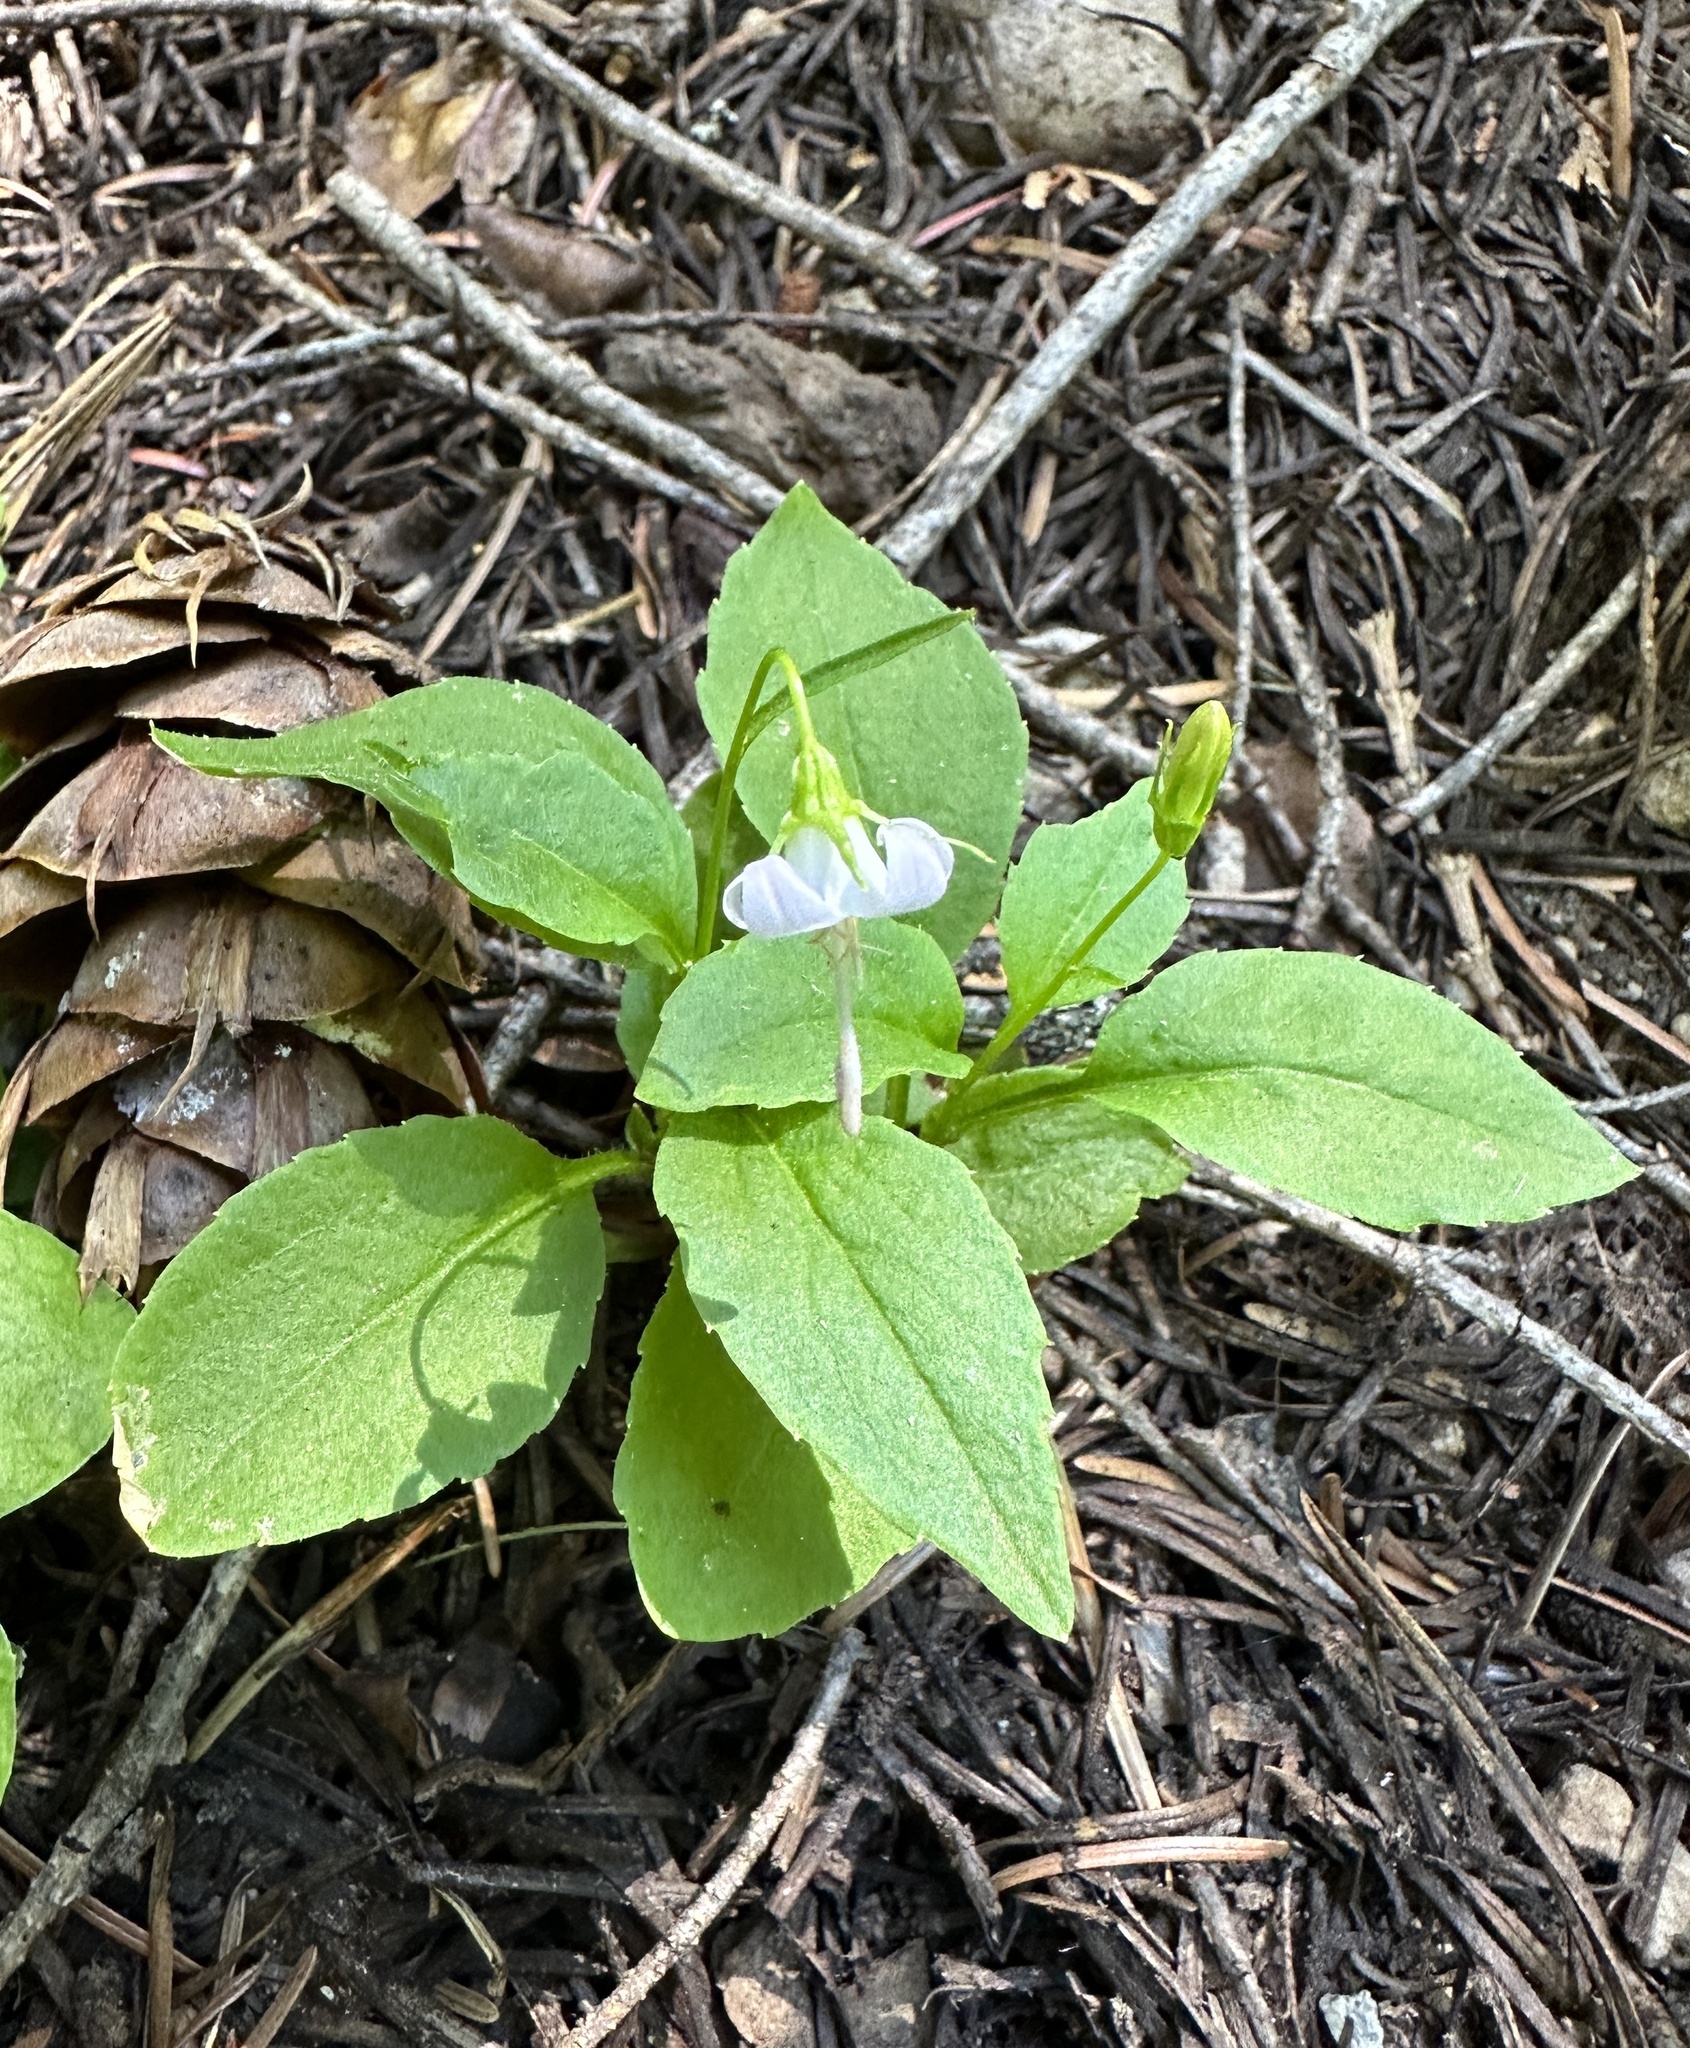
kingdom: Plantae
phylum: Tracheophyta
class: Magnoliopsida
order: Asterales
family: Campanulaceae
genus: Campanula
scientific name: Campanula scouleri
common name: Scouler's harebell
